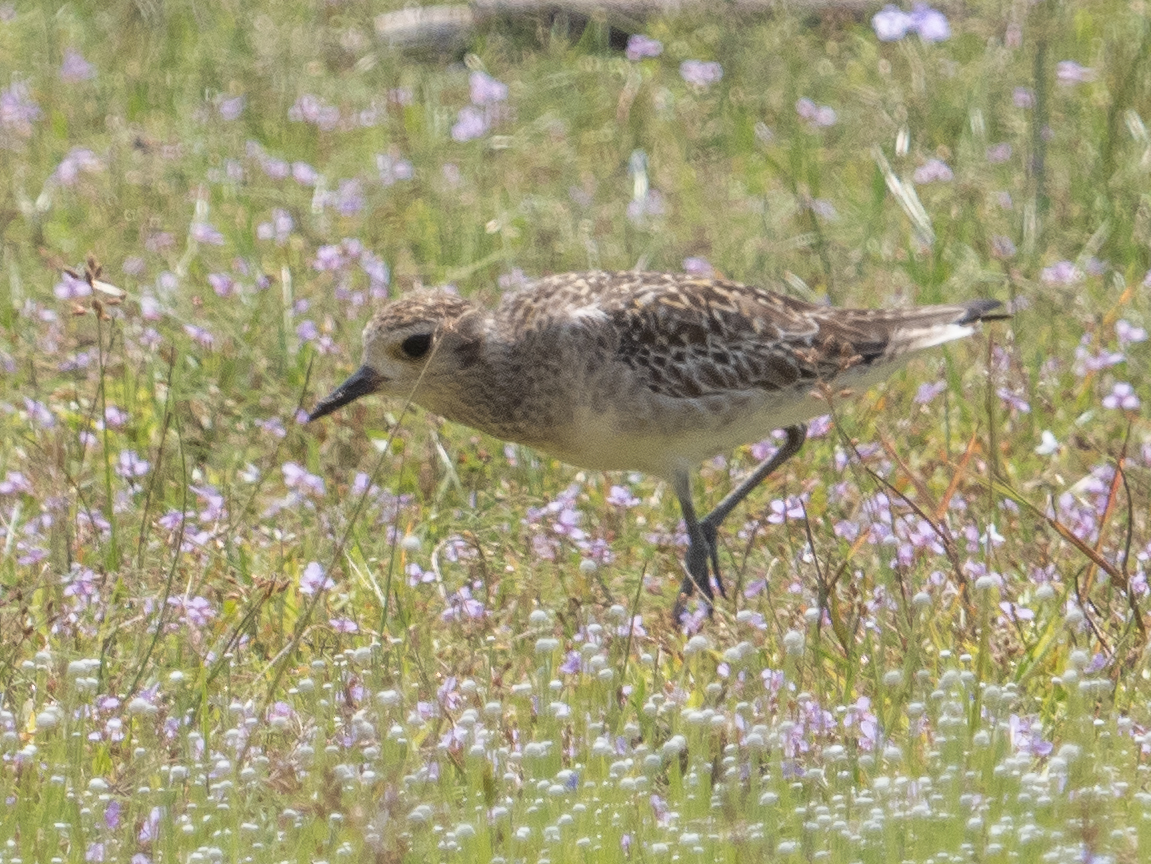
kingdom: Animalia
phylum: Chordata
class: Aves
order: Charadriiformes
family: Charadriidae
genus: Pluvialis
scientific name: Pluvialis fulva
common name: Pacific golden plover
